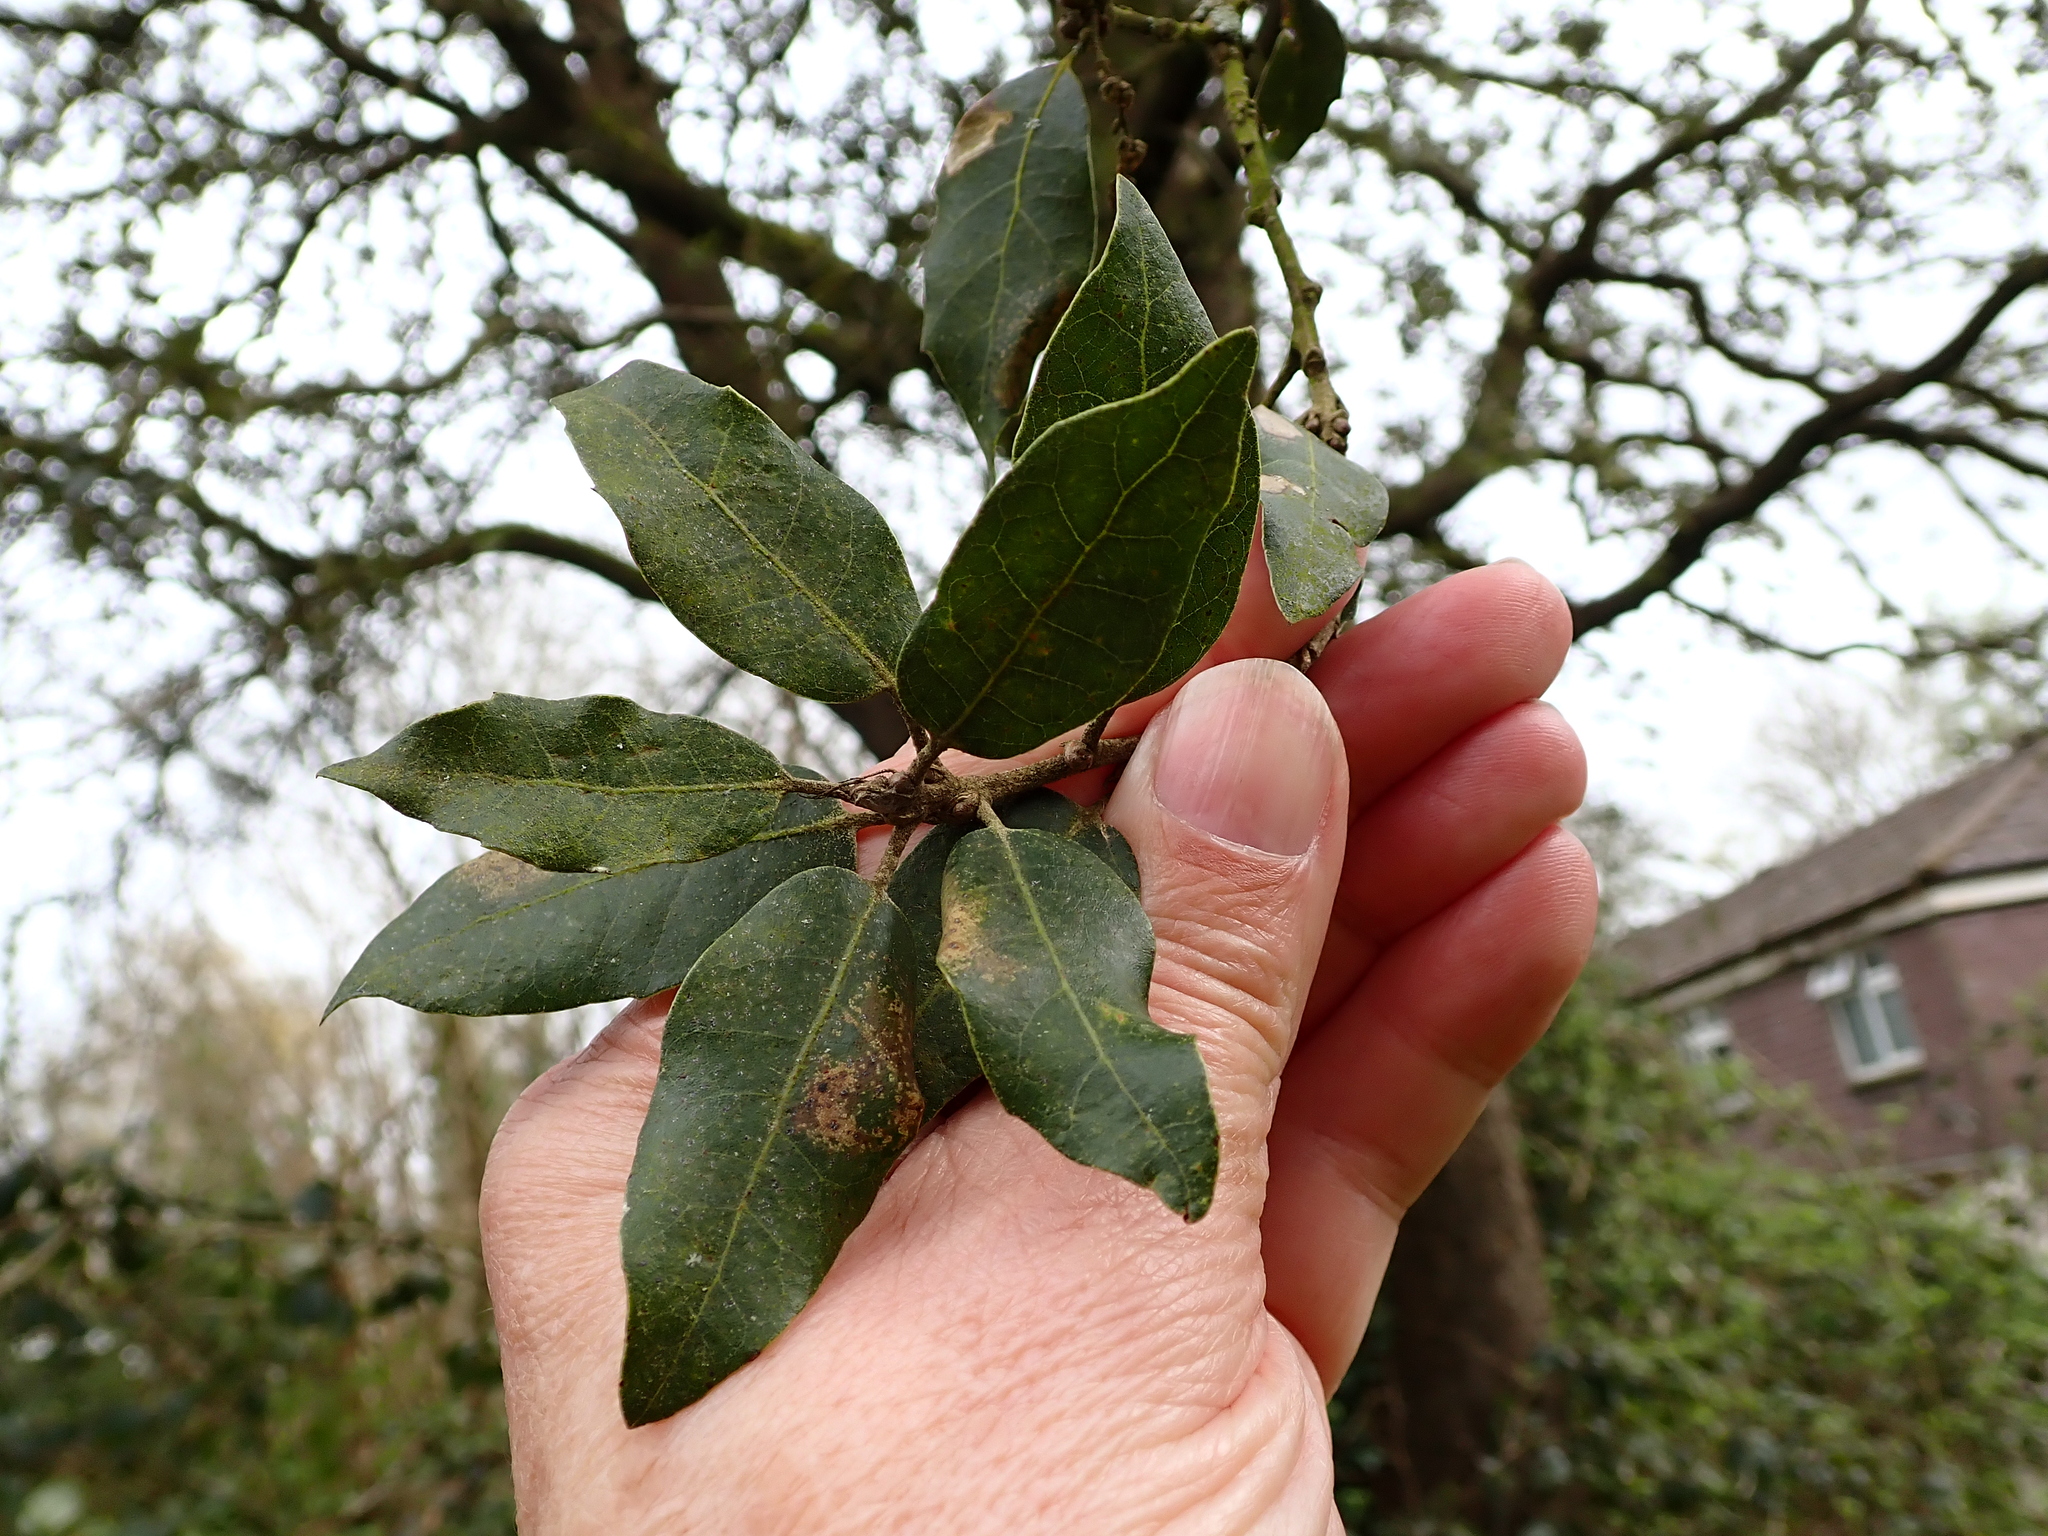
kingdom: Plantae
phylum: Tracheophyta
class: Magnoliopsida
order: Fagales
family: Fagaceae
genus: Quercus
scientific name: Quercus ilex
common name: Evergreen oak
